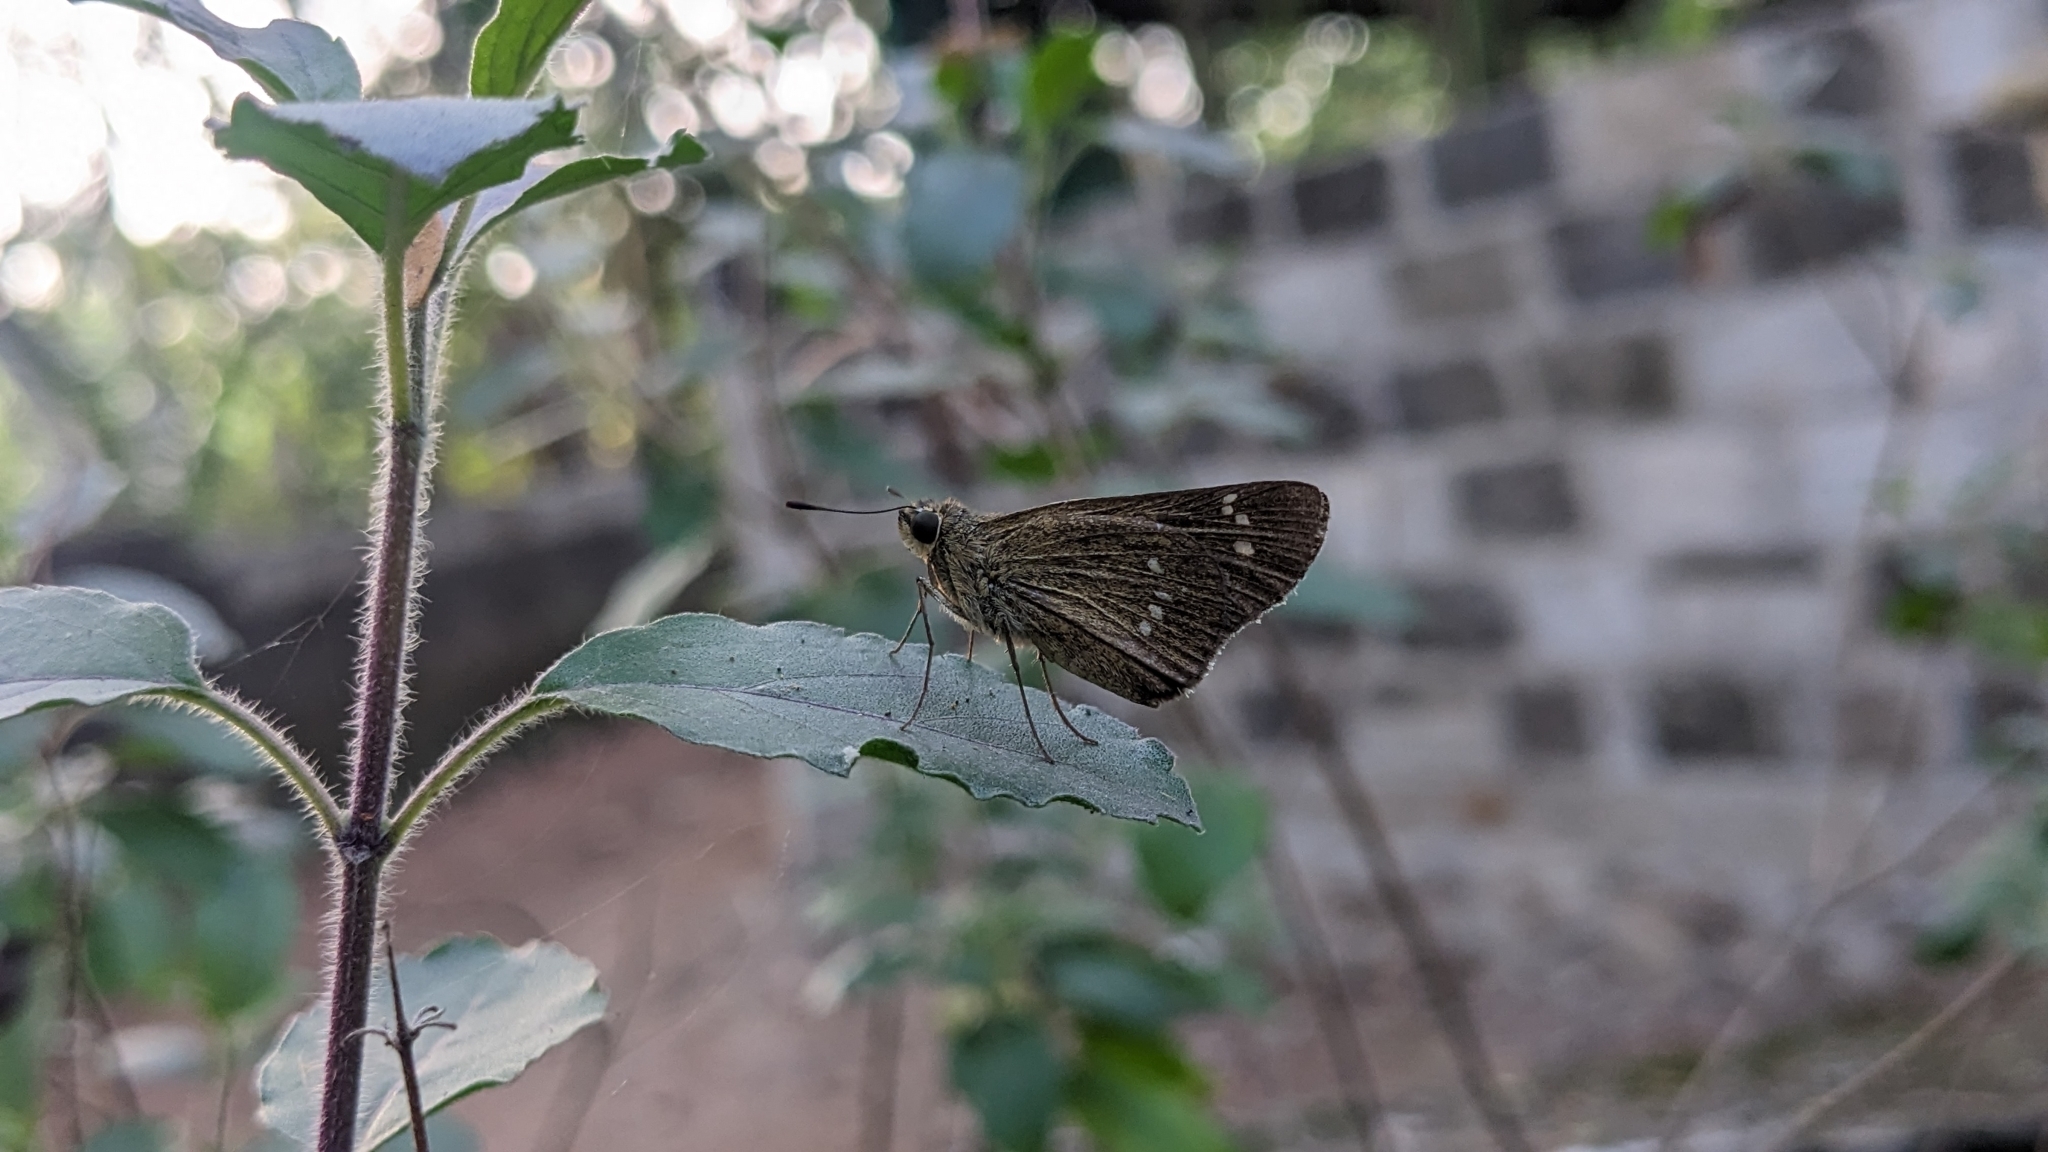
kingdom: Animalia
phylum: Arthropoda
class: Insecta
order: Lepidoptera
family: Hesperiidae
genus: Borbo
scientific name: Borbo cinnara
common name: Formosan swift
